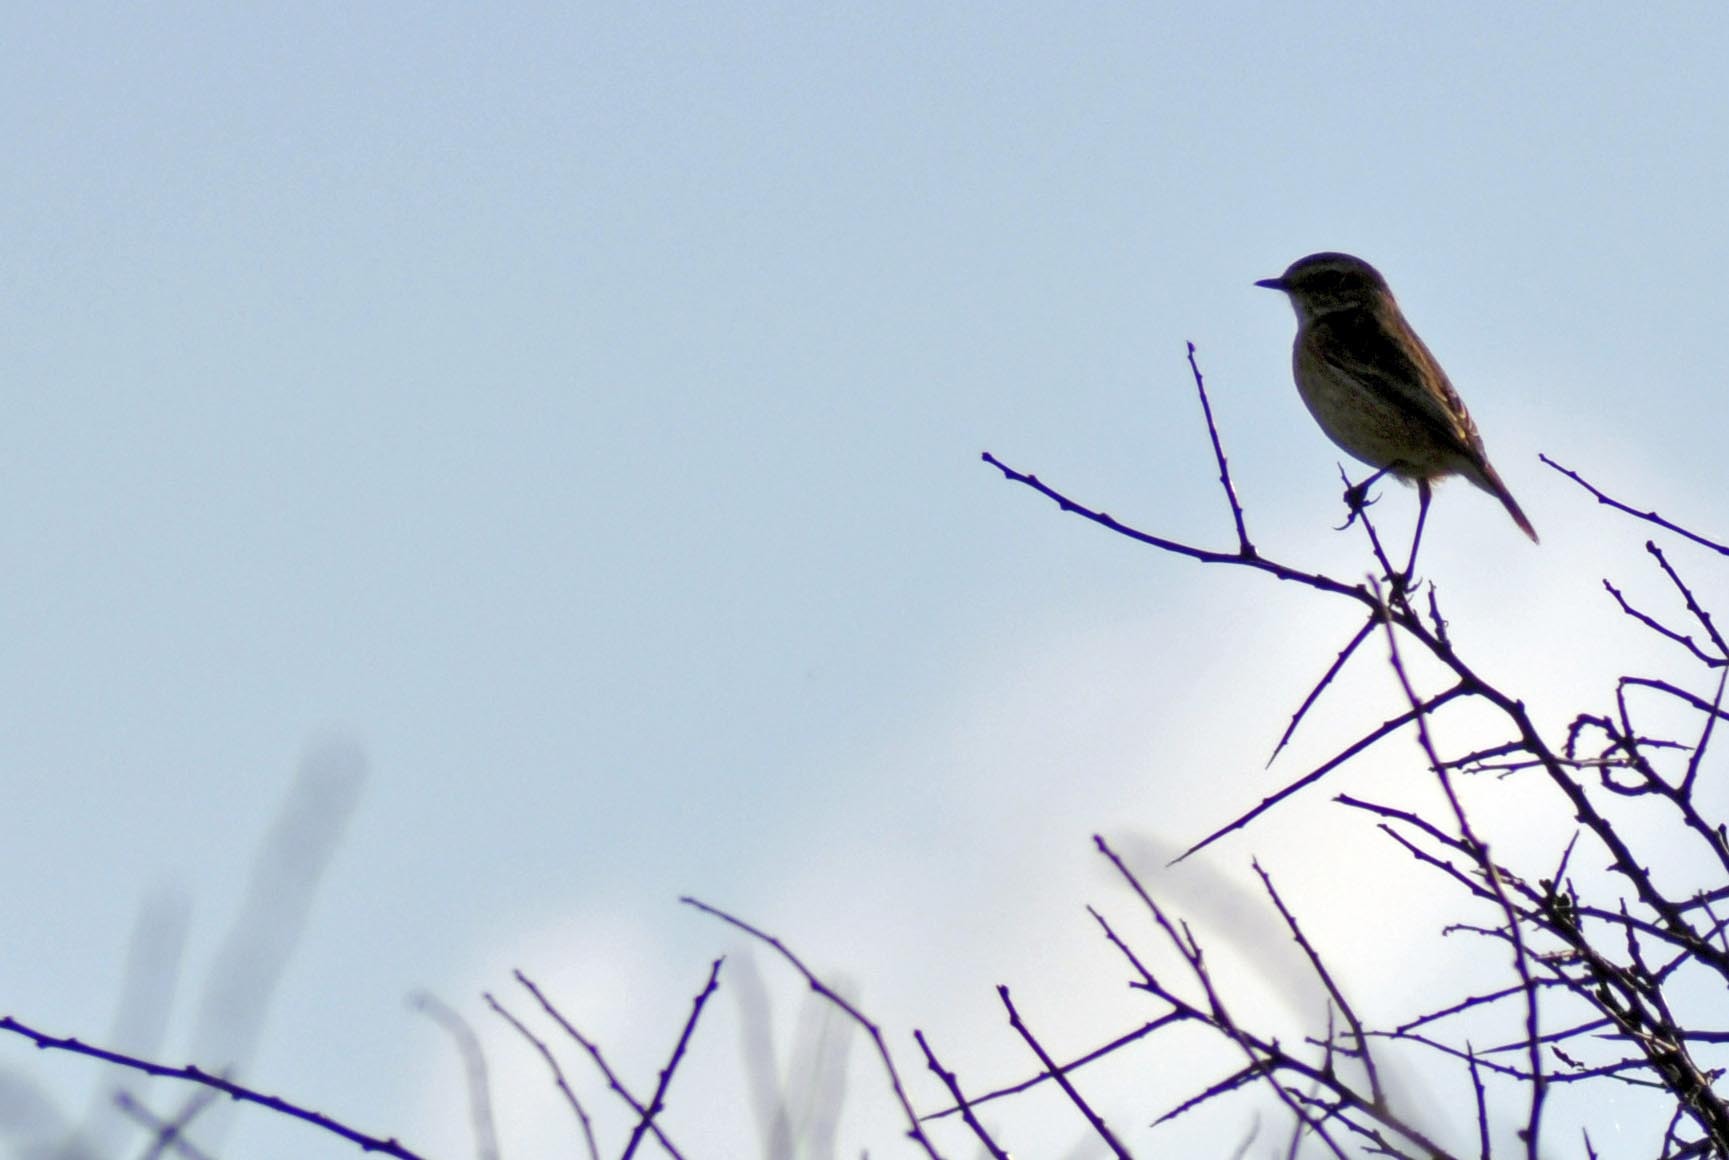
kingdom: Animalia
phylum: Chordata
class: Aves
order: Passeriformes
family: Muscicapidae
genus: Saxicola
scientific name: Saxicola rubicola
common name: European stonechat
